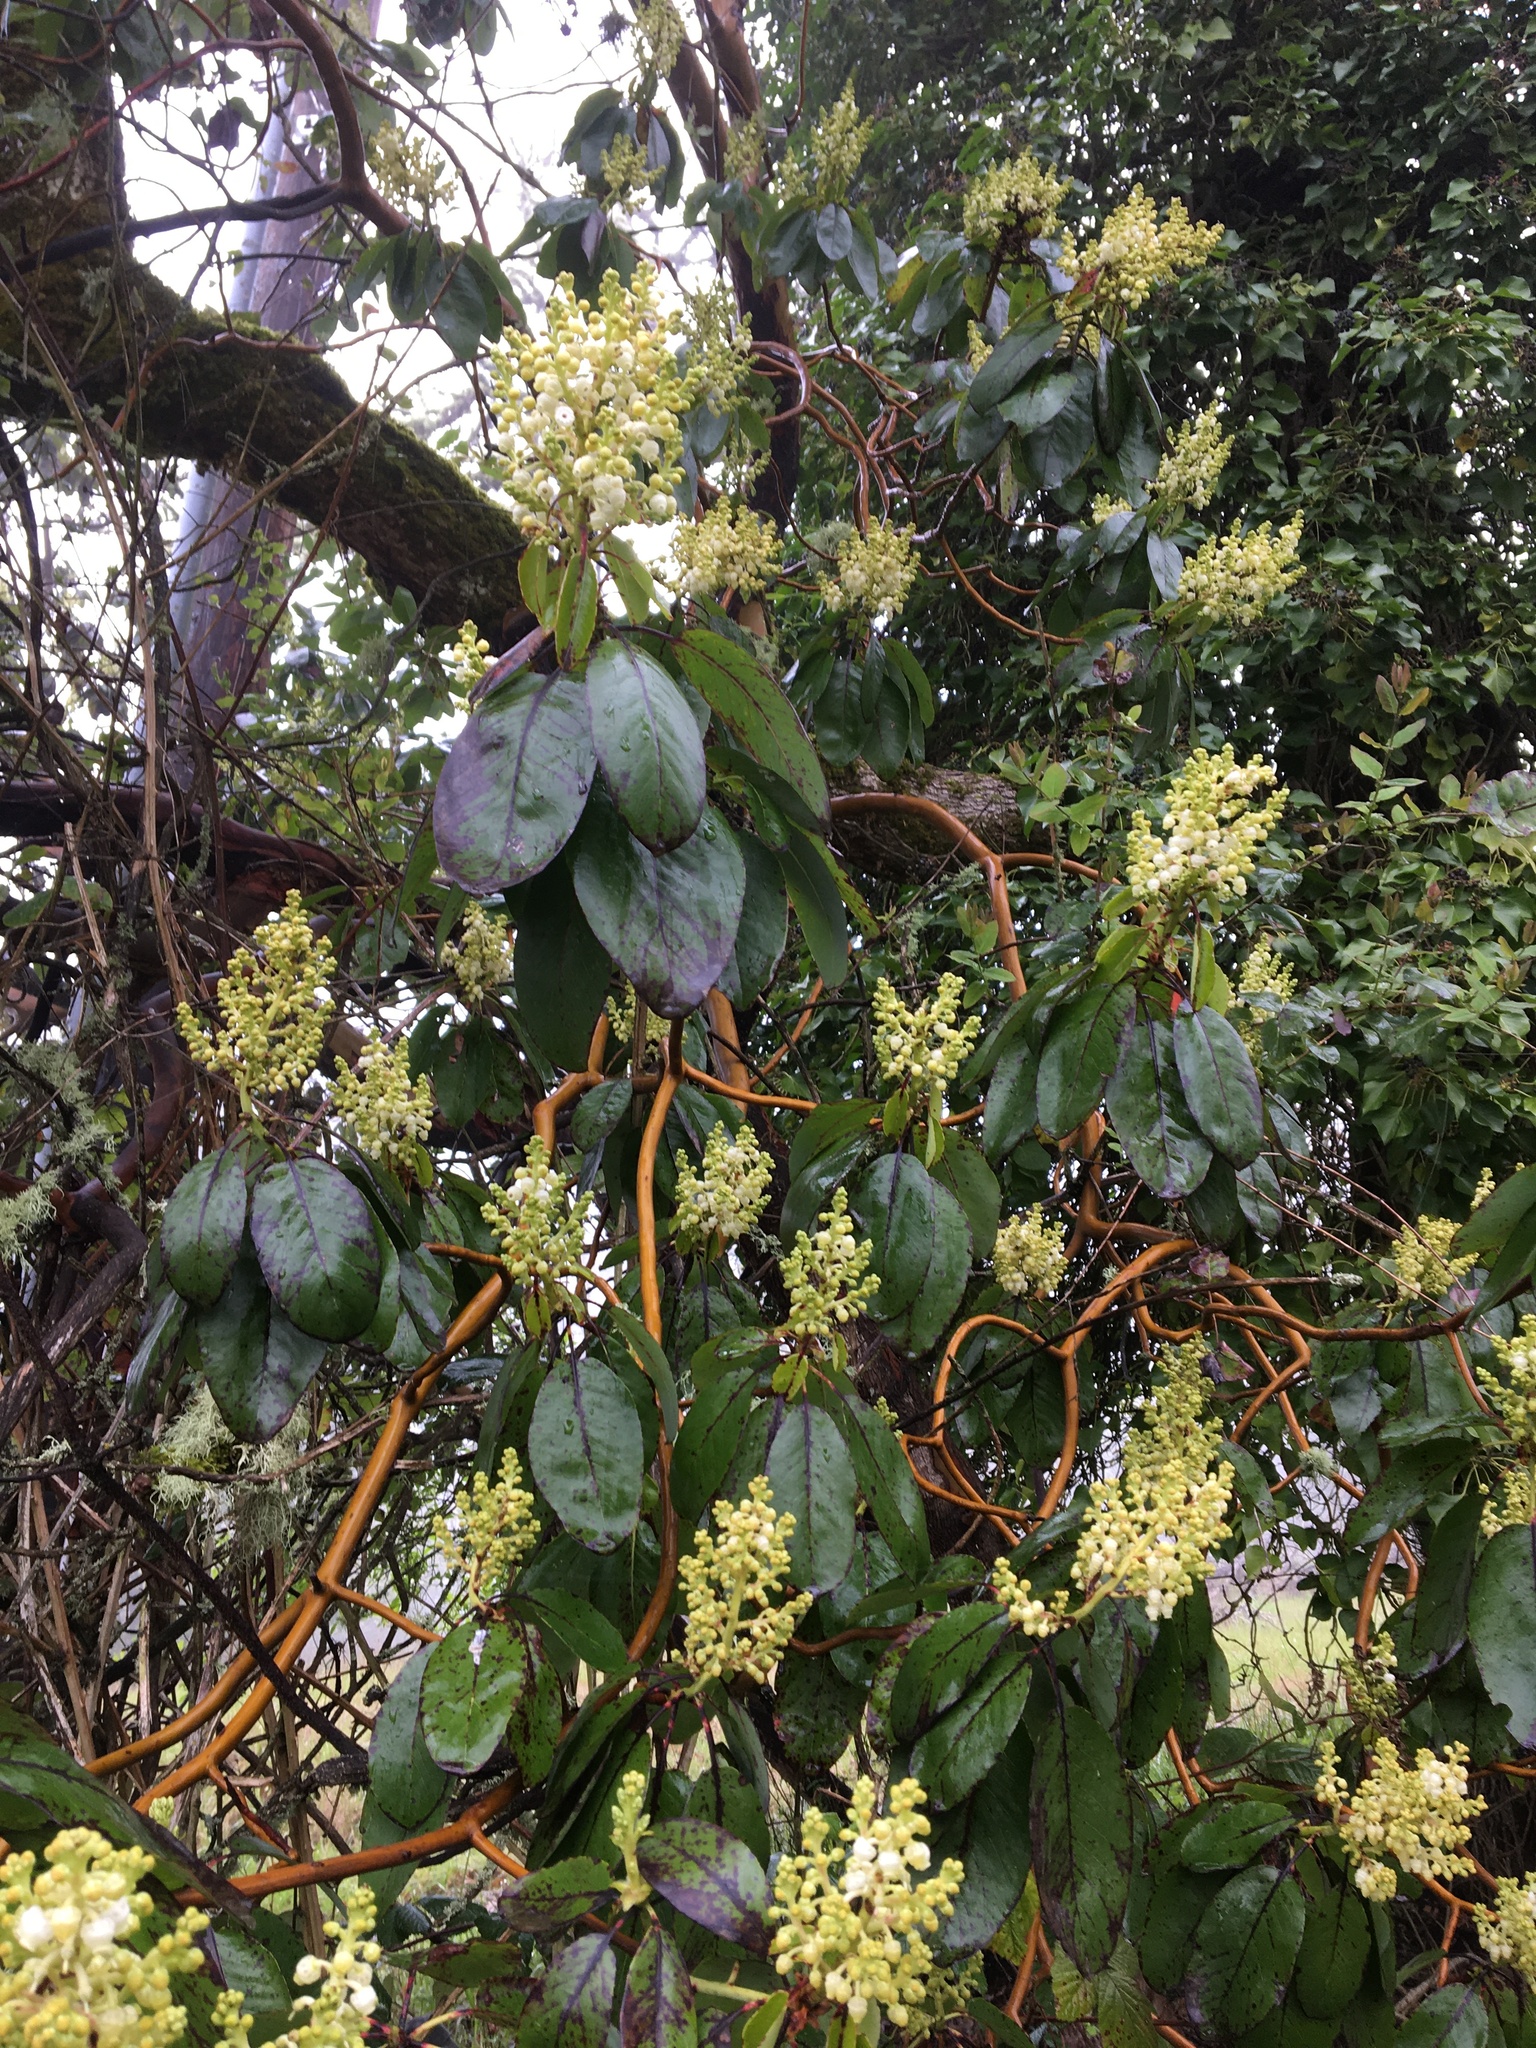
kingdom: Plantae
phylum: Tracheophyta
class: Magnoliopsida
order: Ericales
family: Ericaceae
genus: Arbutus
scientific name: Arbutus menziesii
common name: Pacific madrone
